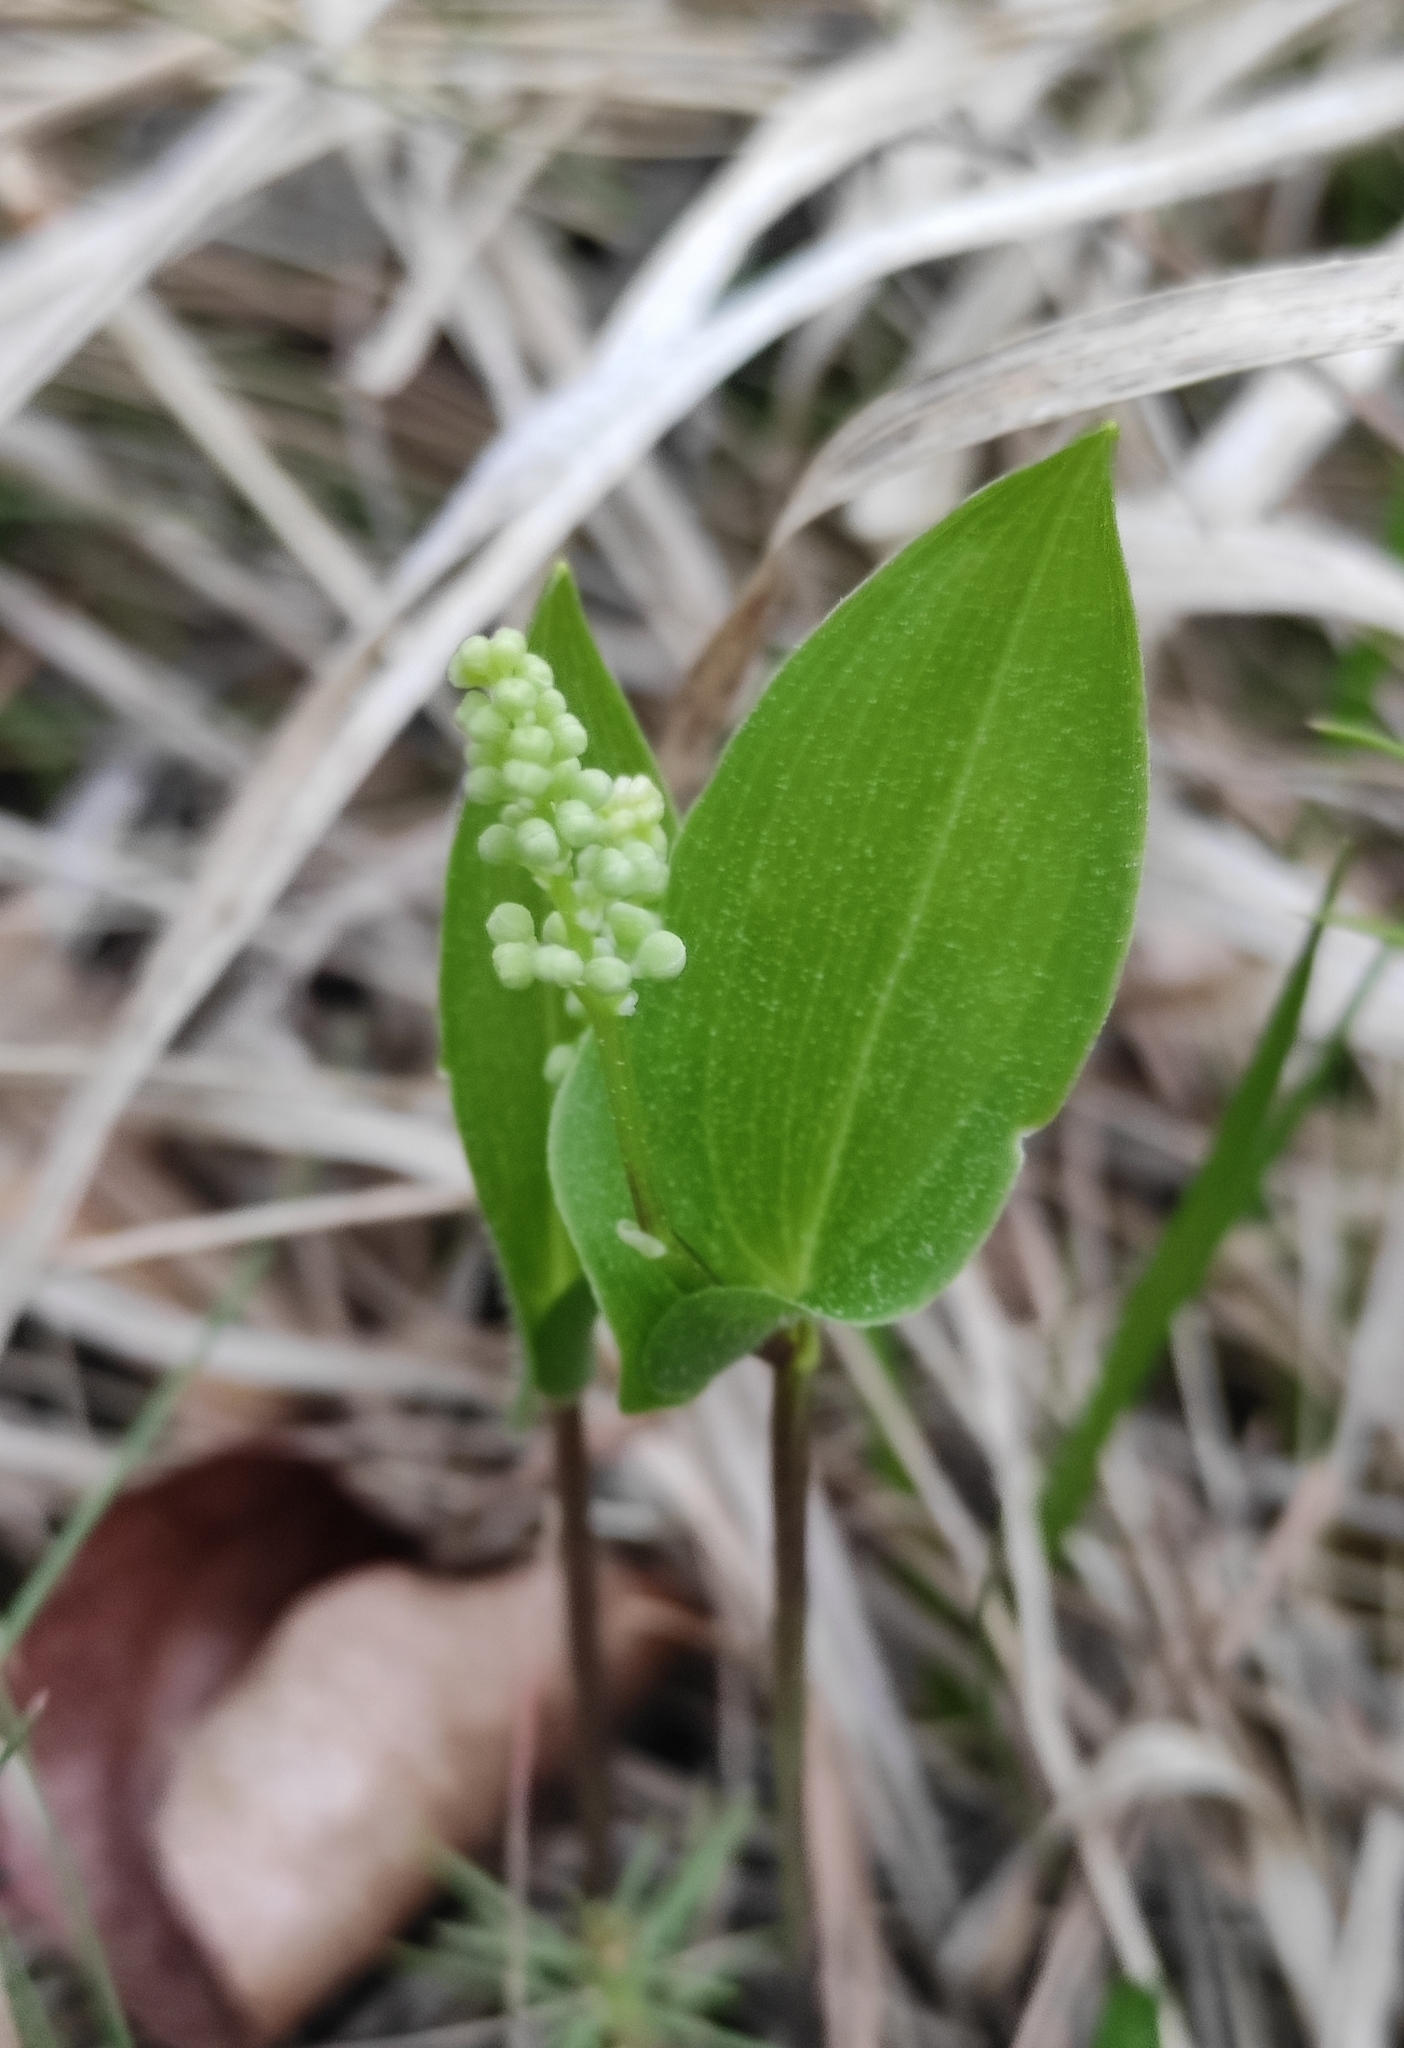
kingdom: Plantae
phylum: Tracheophyta
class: Liliopsida
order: Asparagales
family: Asparagaceae
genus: Maianthemum
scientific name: Maianthemum bifolium
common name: May lily
